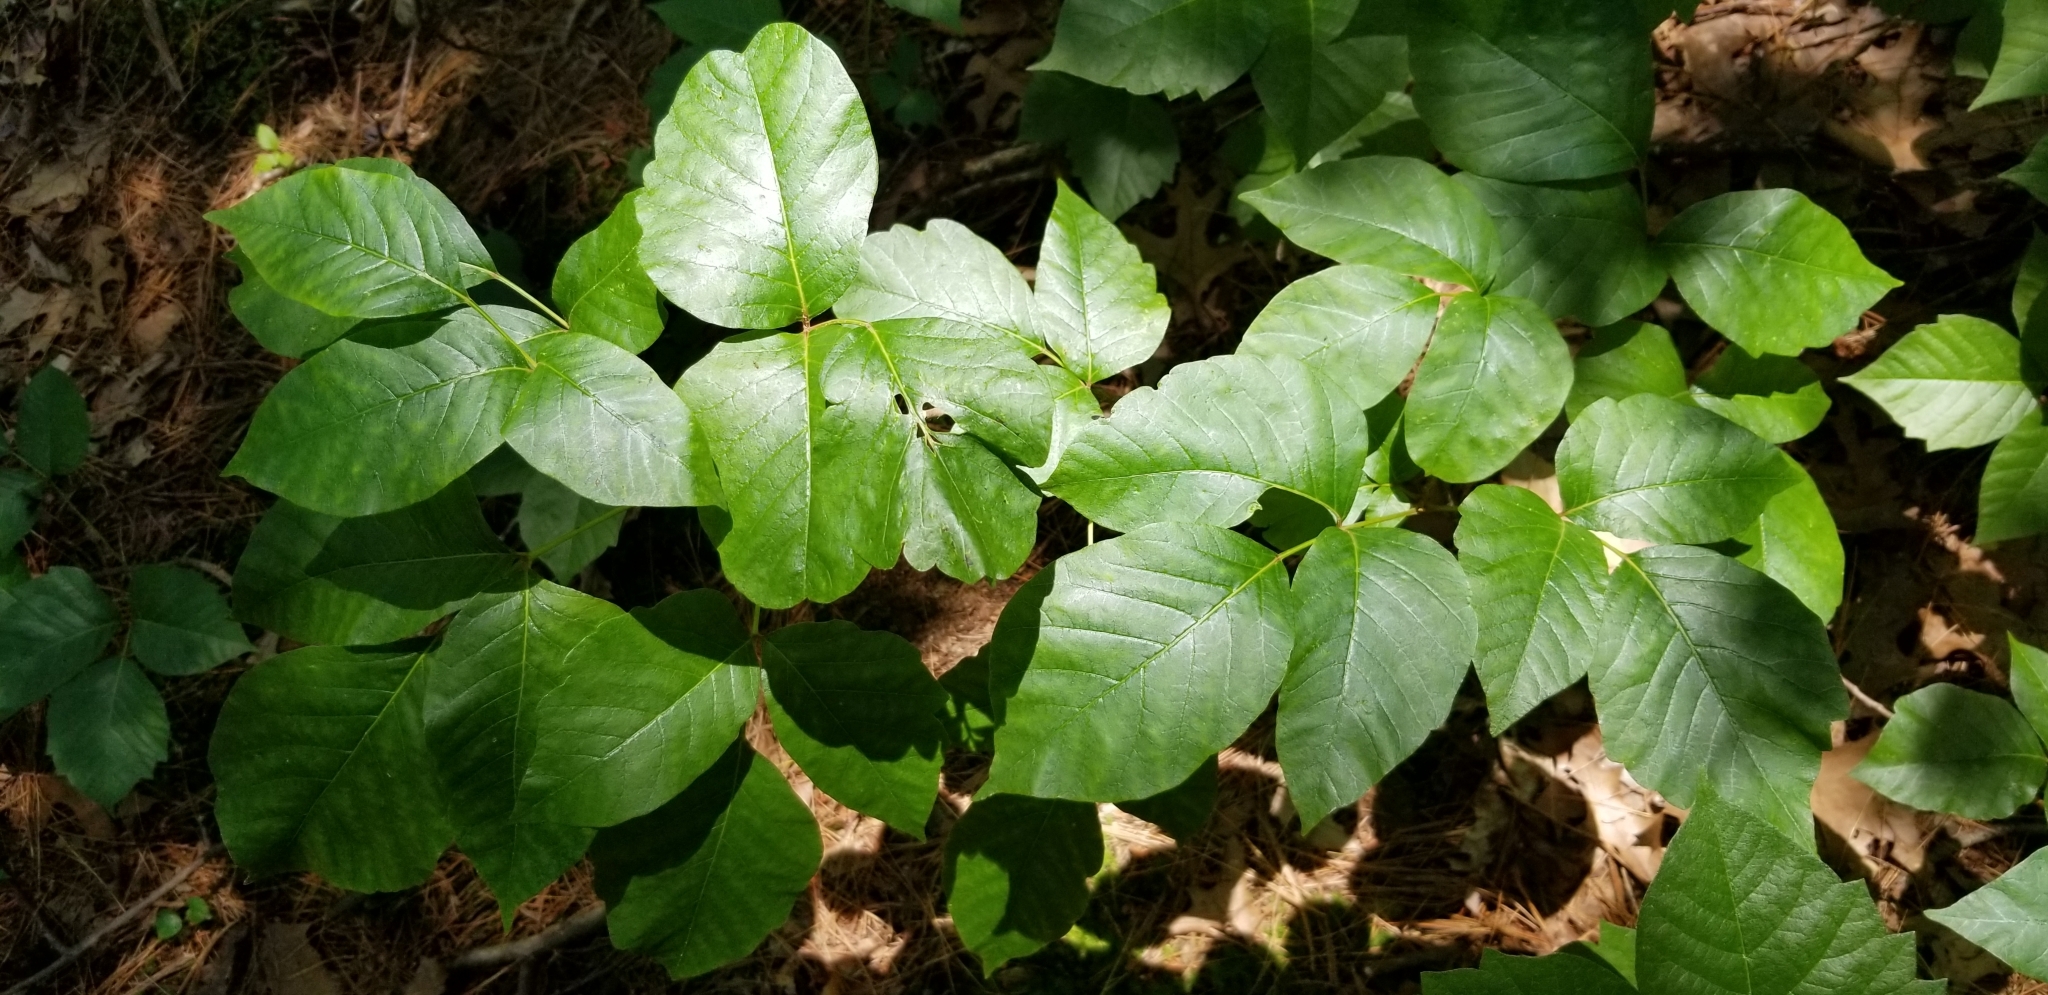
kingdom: Plantae
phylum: Tracheophyta
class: Magnoliopsida
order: Sapindales
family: Anacardiaceae
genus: Toxicodendron
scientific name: Toxicodendron radicans
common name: Poison ivy
